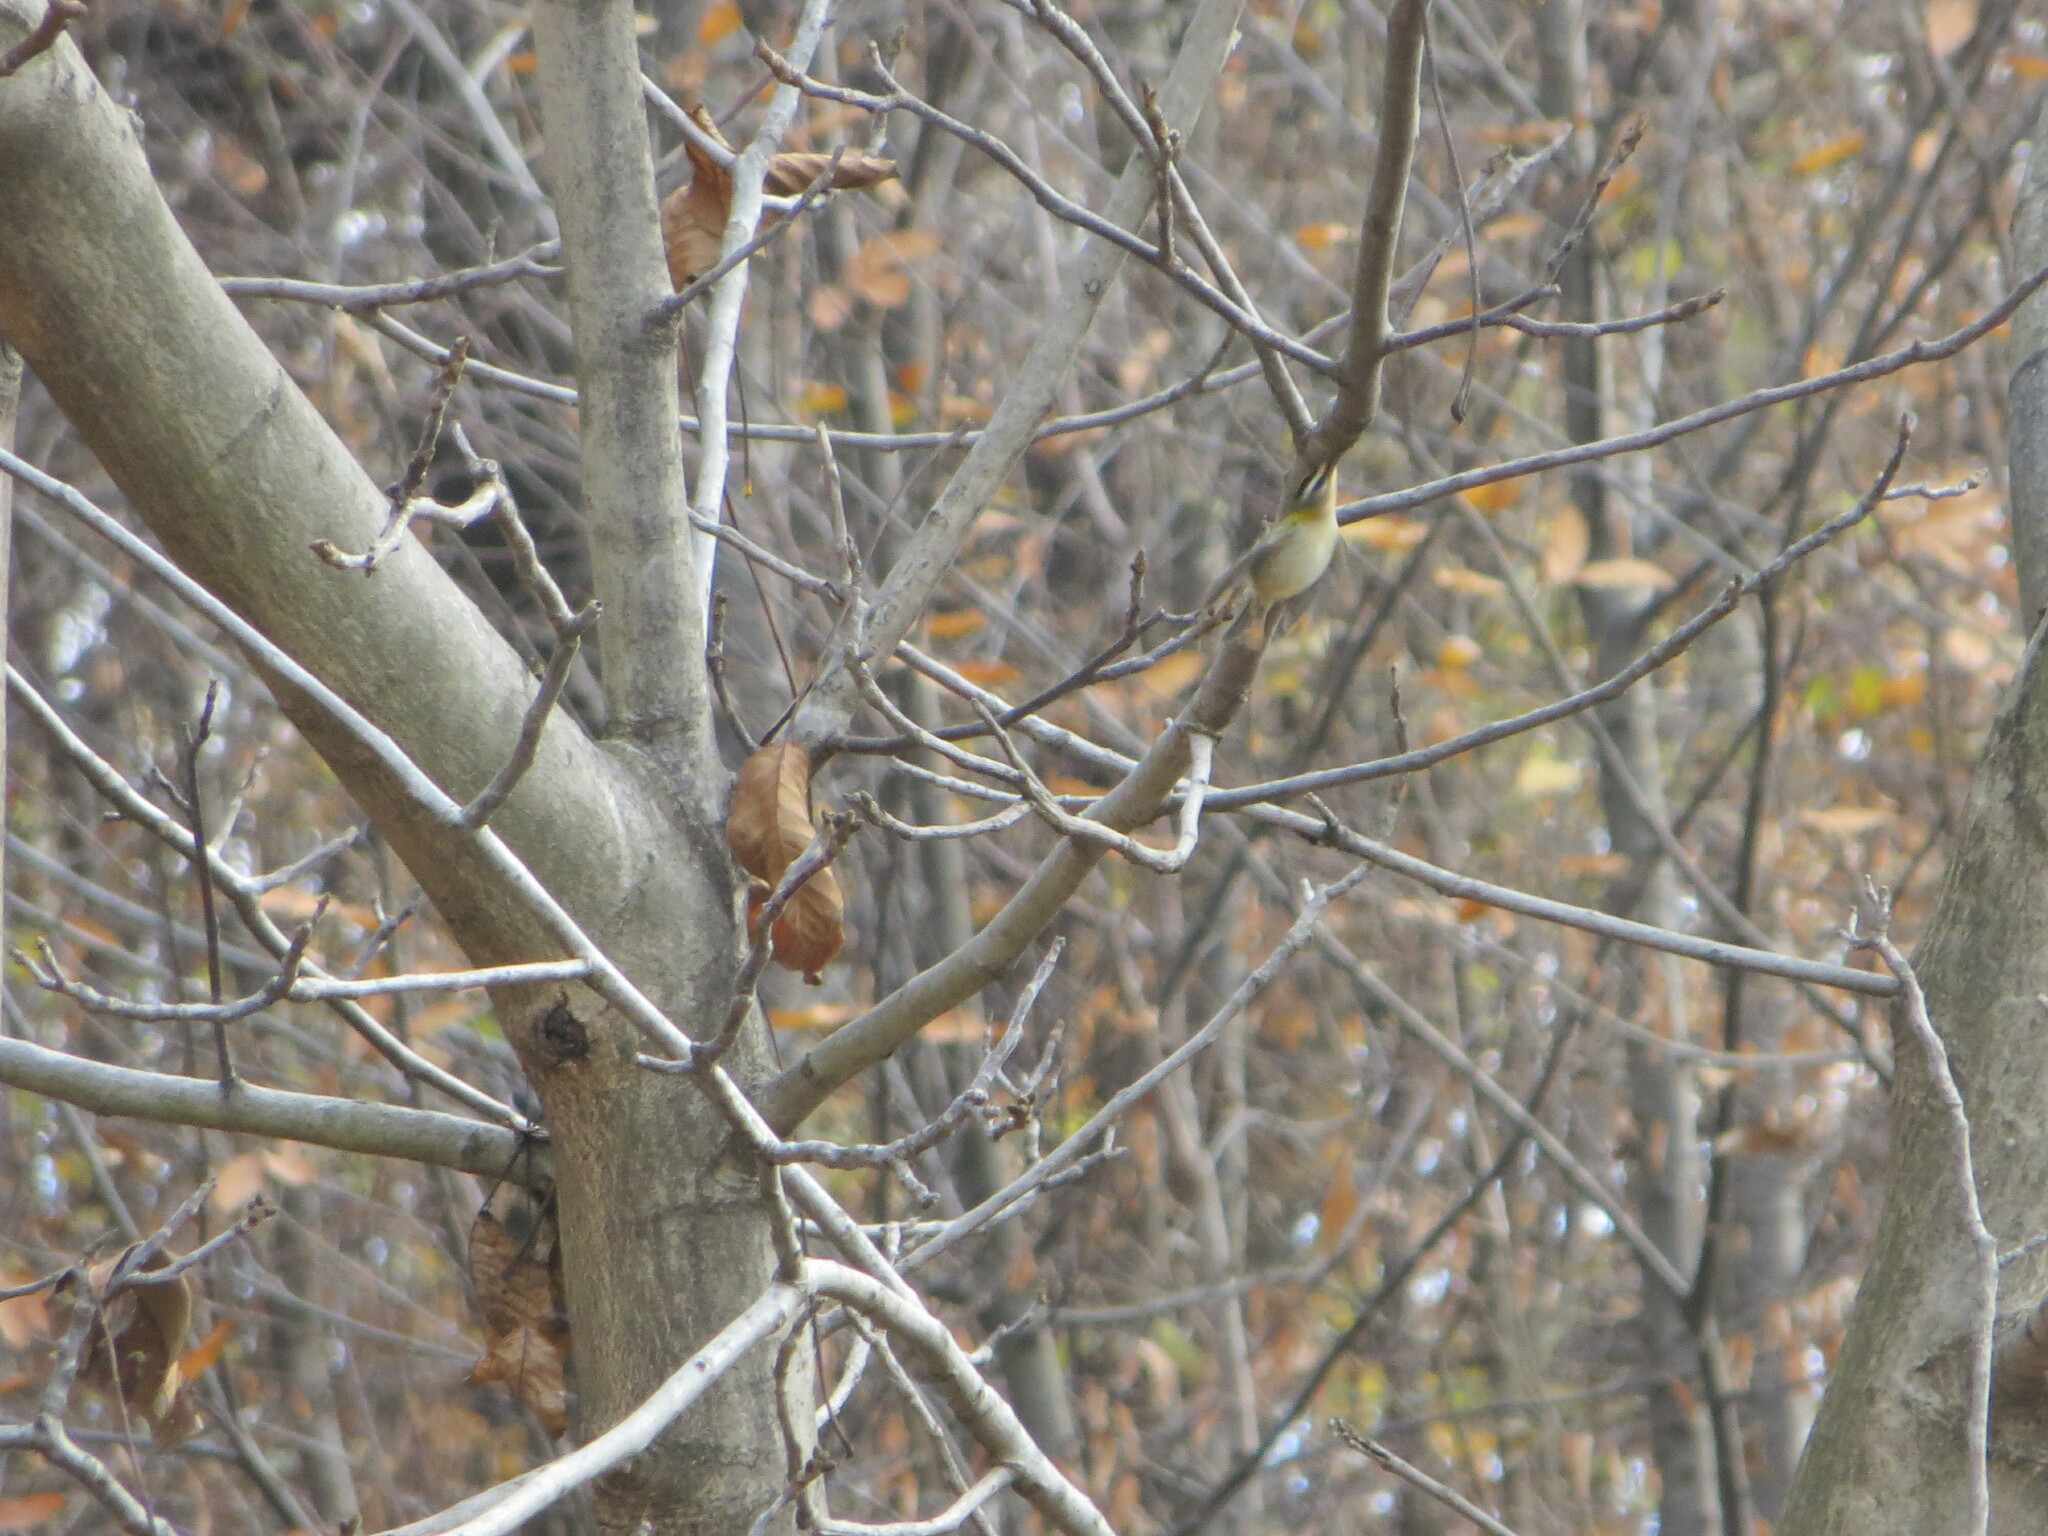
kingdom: Animalia
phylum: Chordata
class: Aves
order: Passeriformes
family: Regulidae
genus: Regulus
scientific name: Regulus ignicapilla
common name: Firecrest
